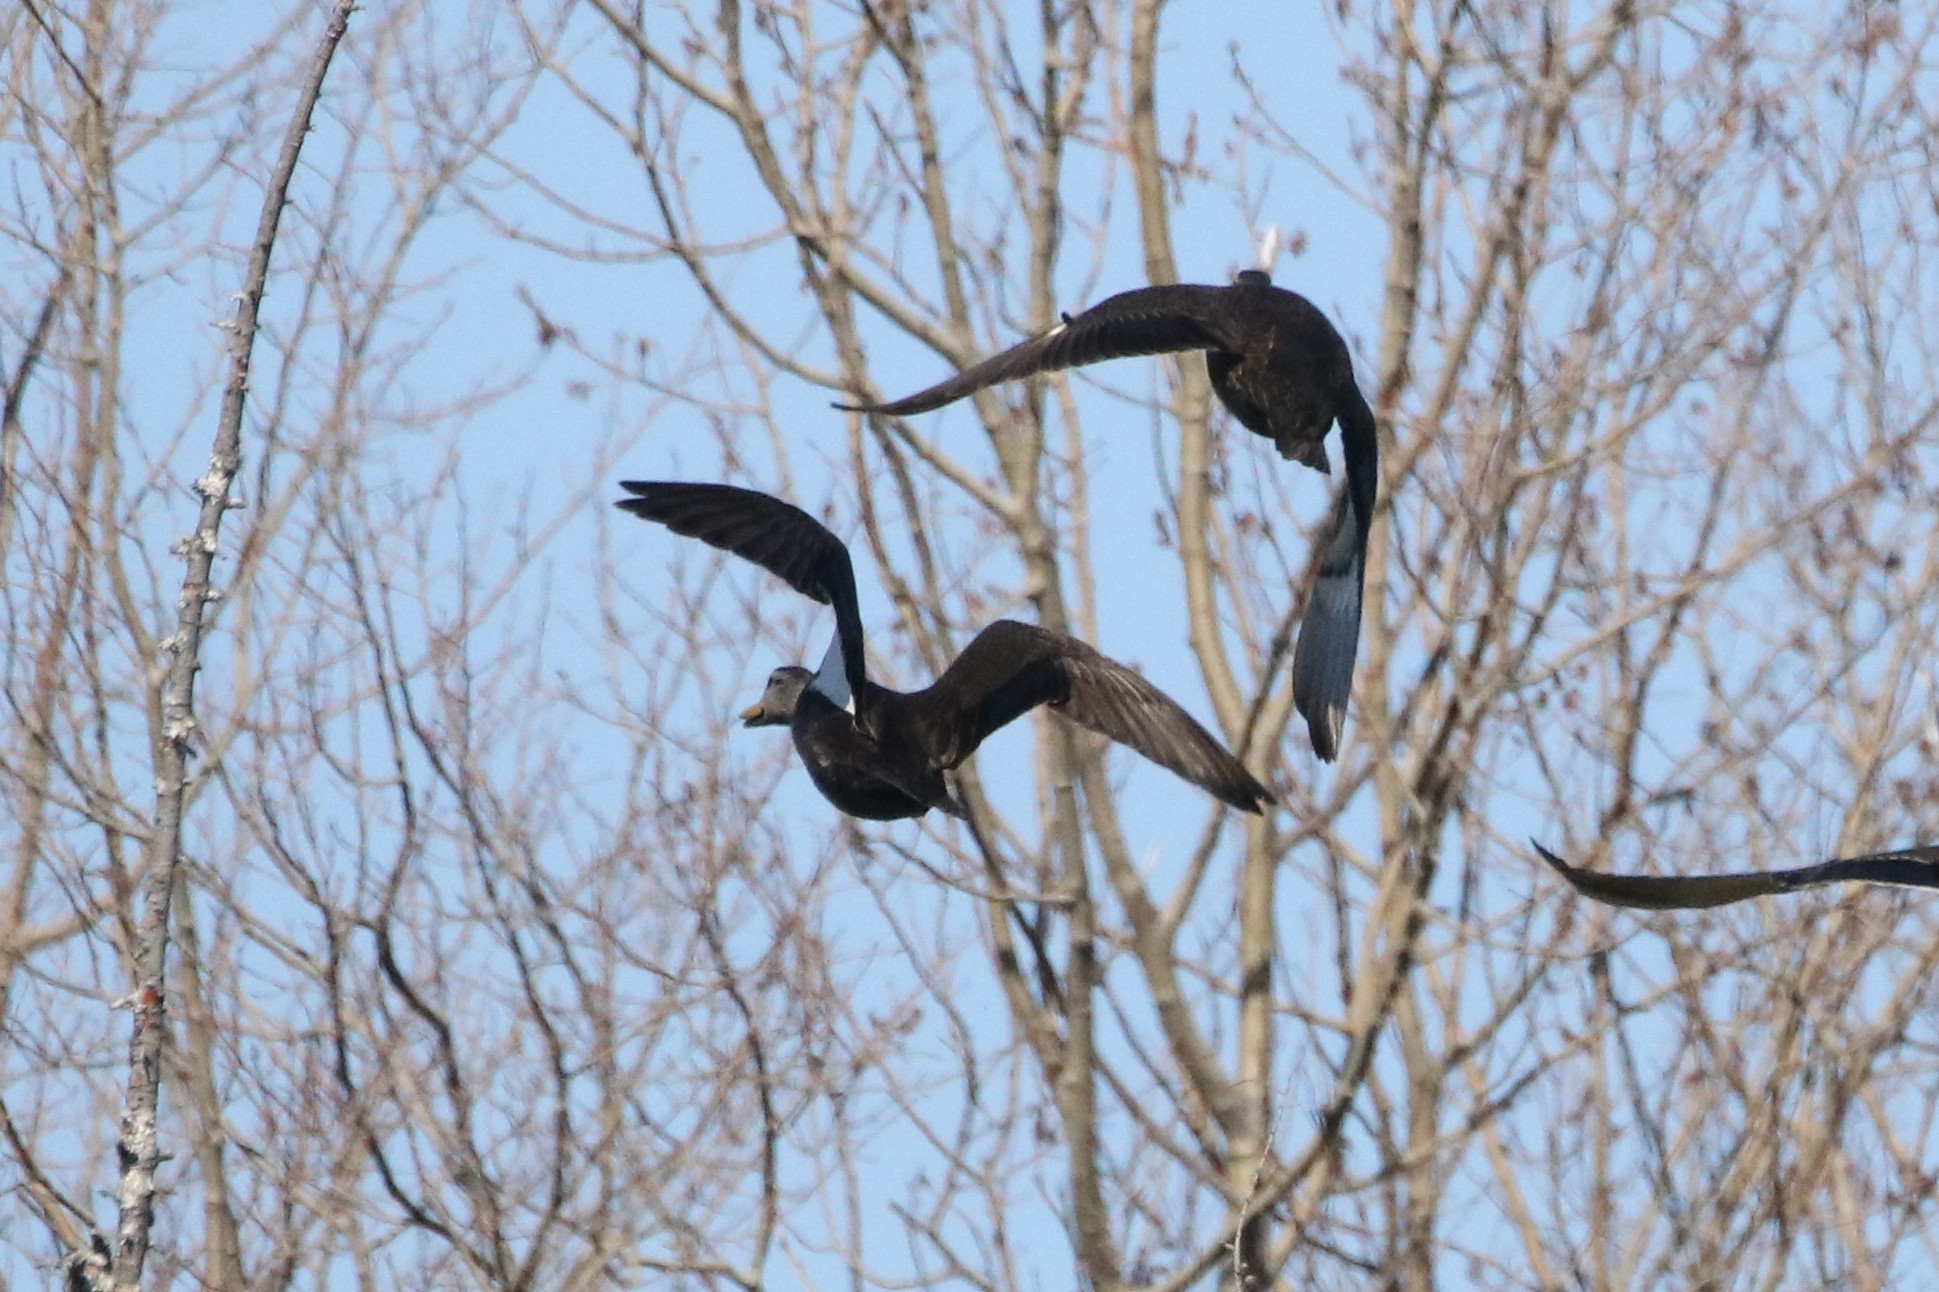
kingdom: Animalia
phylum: Chordata
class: Aves
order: Anseriformes
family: Anatidae
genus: Anas
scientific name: Anas rubripes
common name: American black duck
